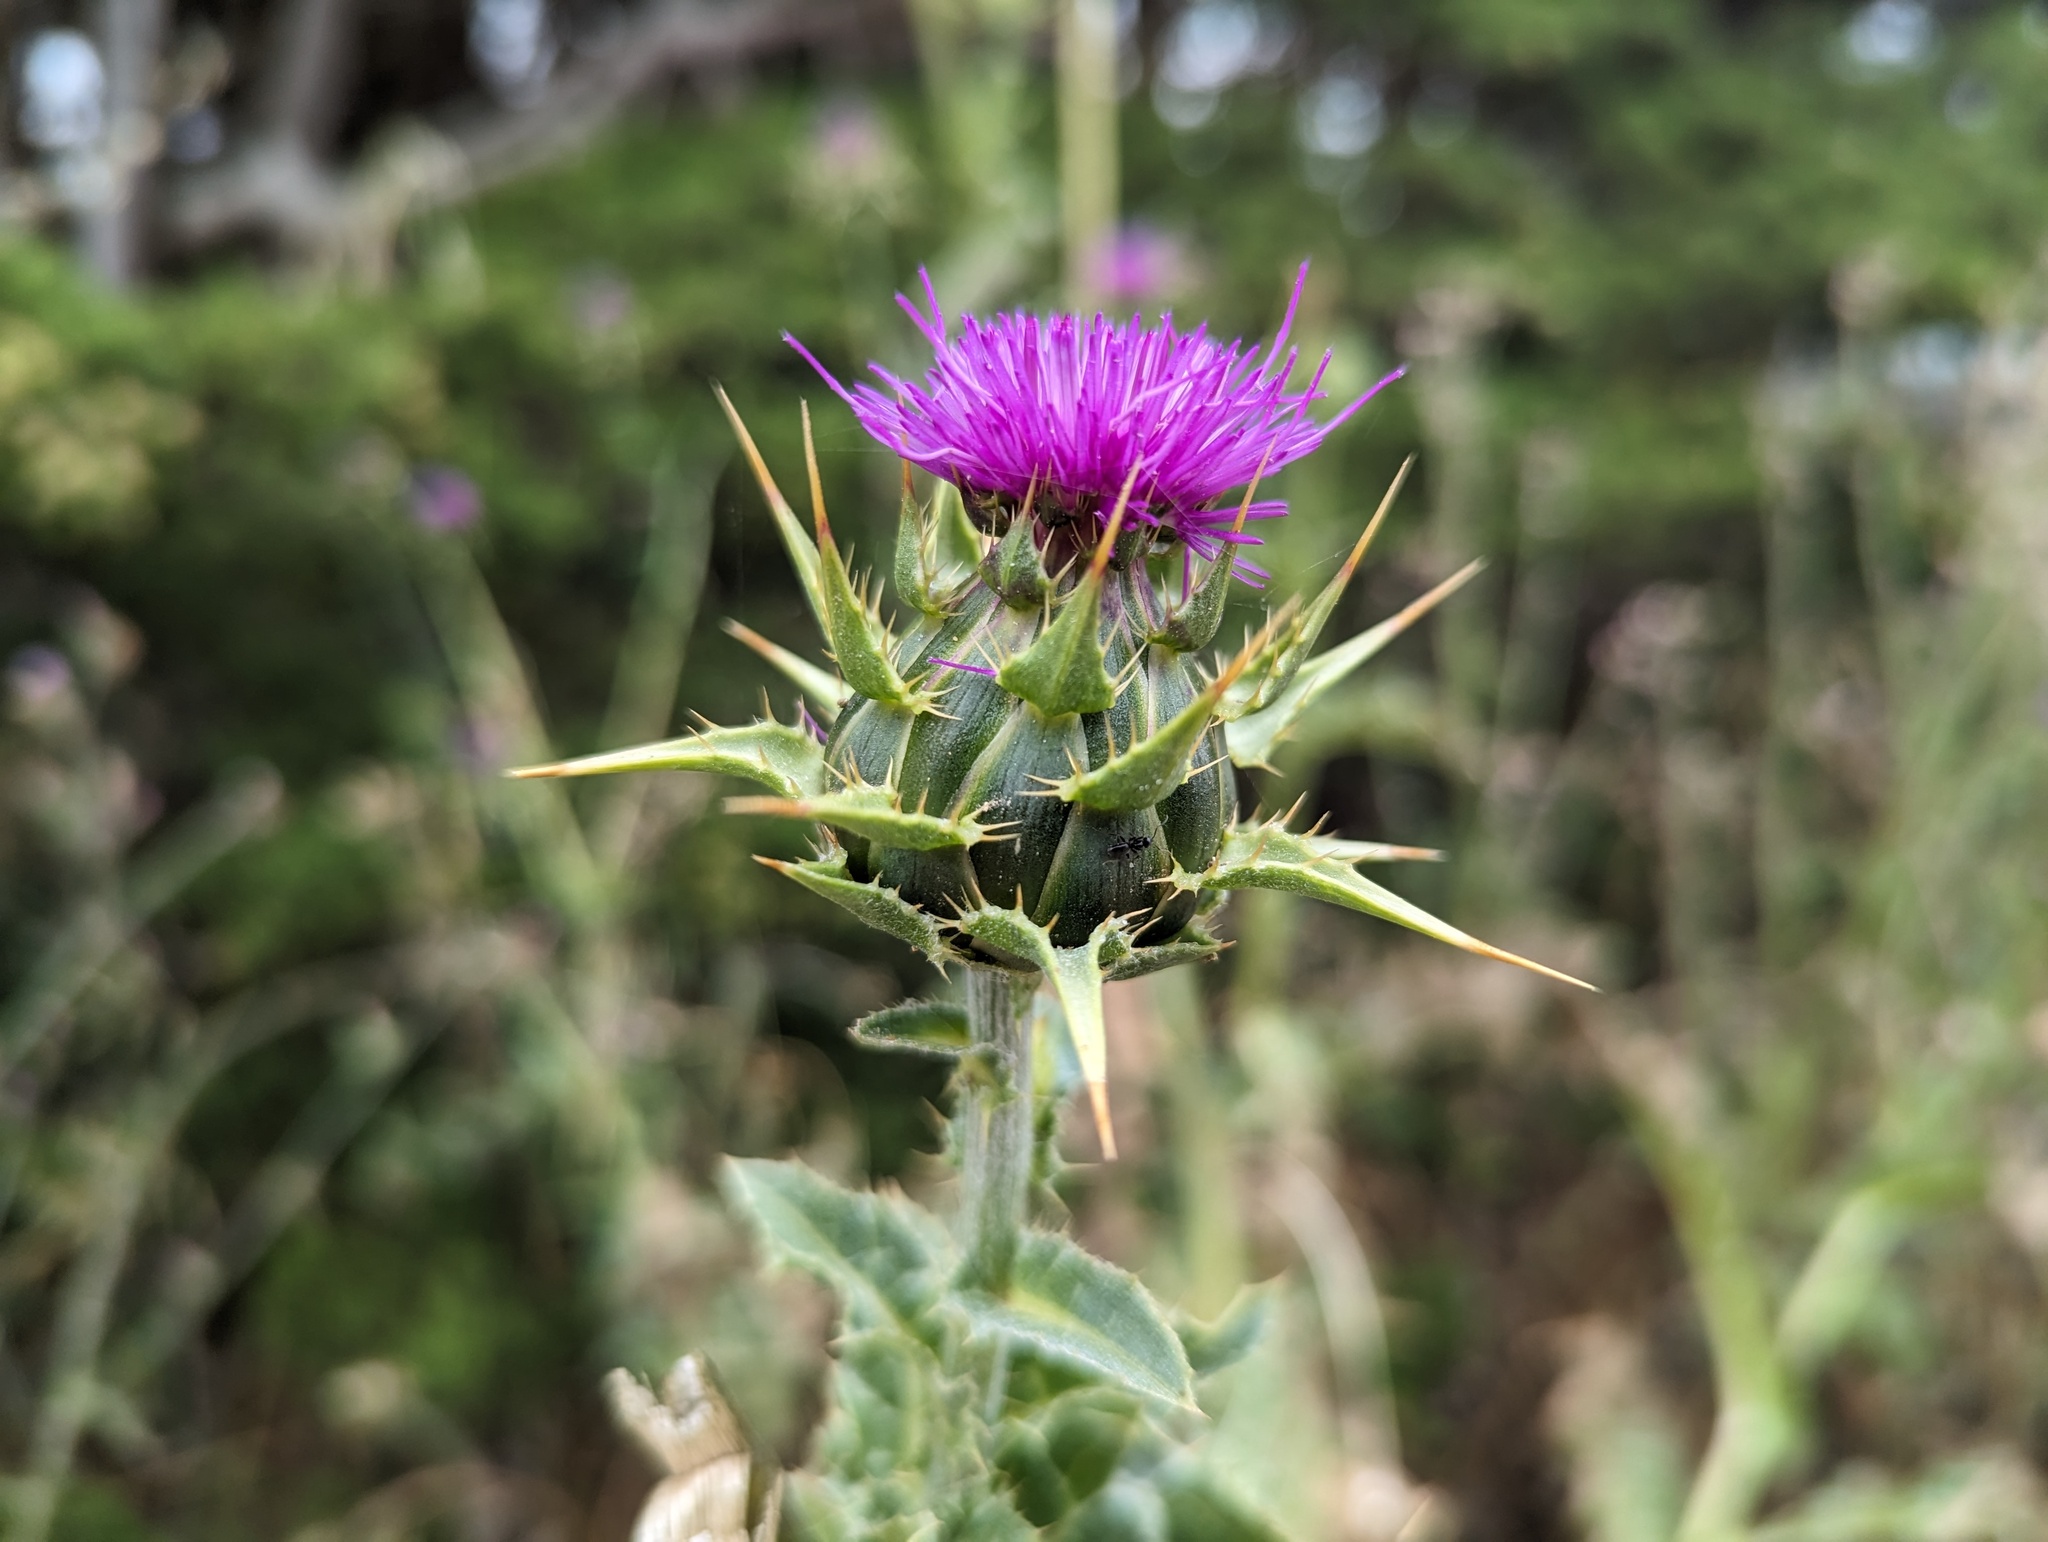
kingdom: Plantae
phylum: Tracheophyta
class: Magnoliopsida
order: Asterales
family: Asteraceae
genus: Silybum
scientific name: Silybum marianum
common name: Milk thistle
